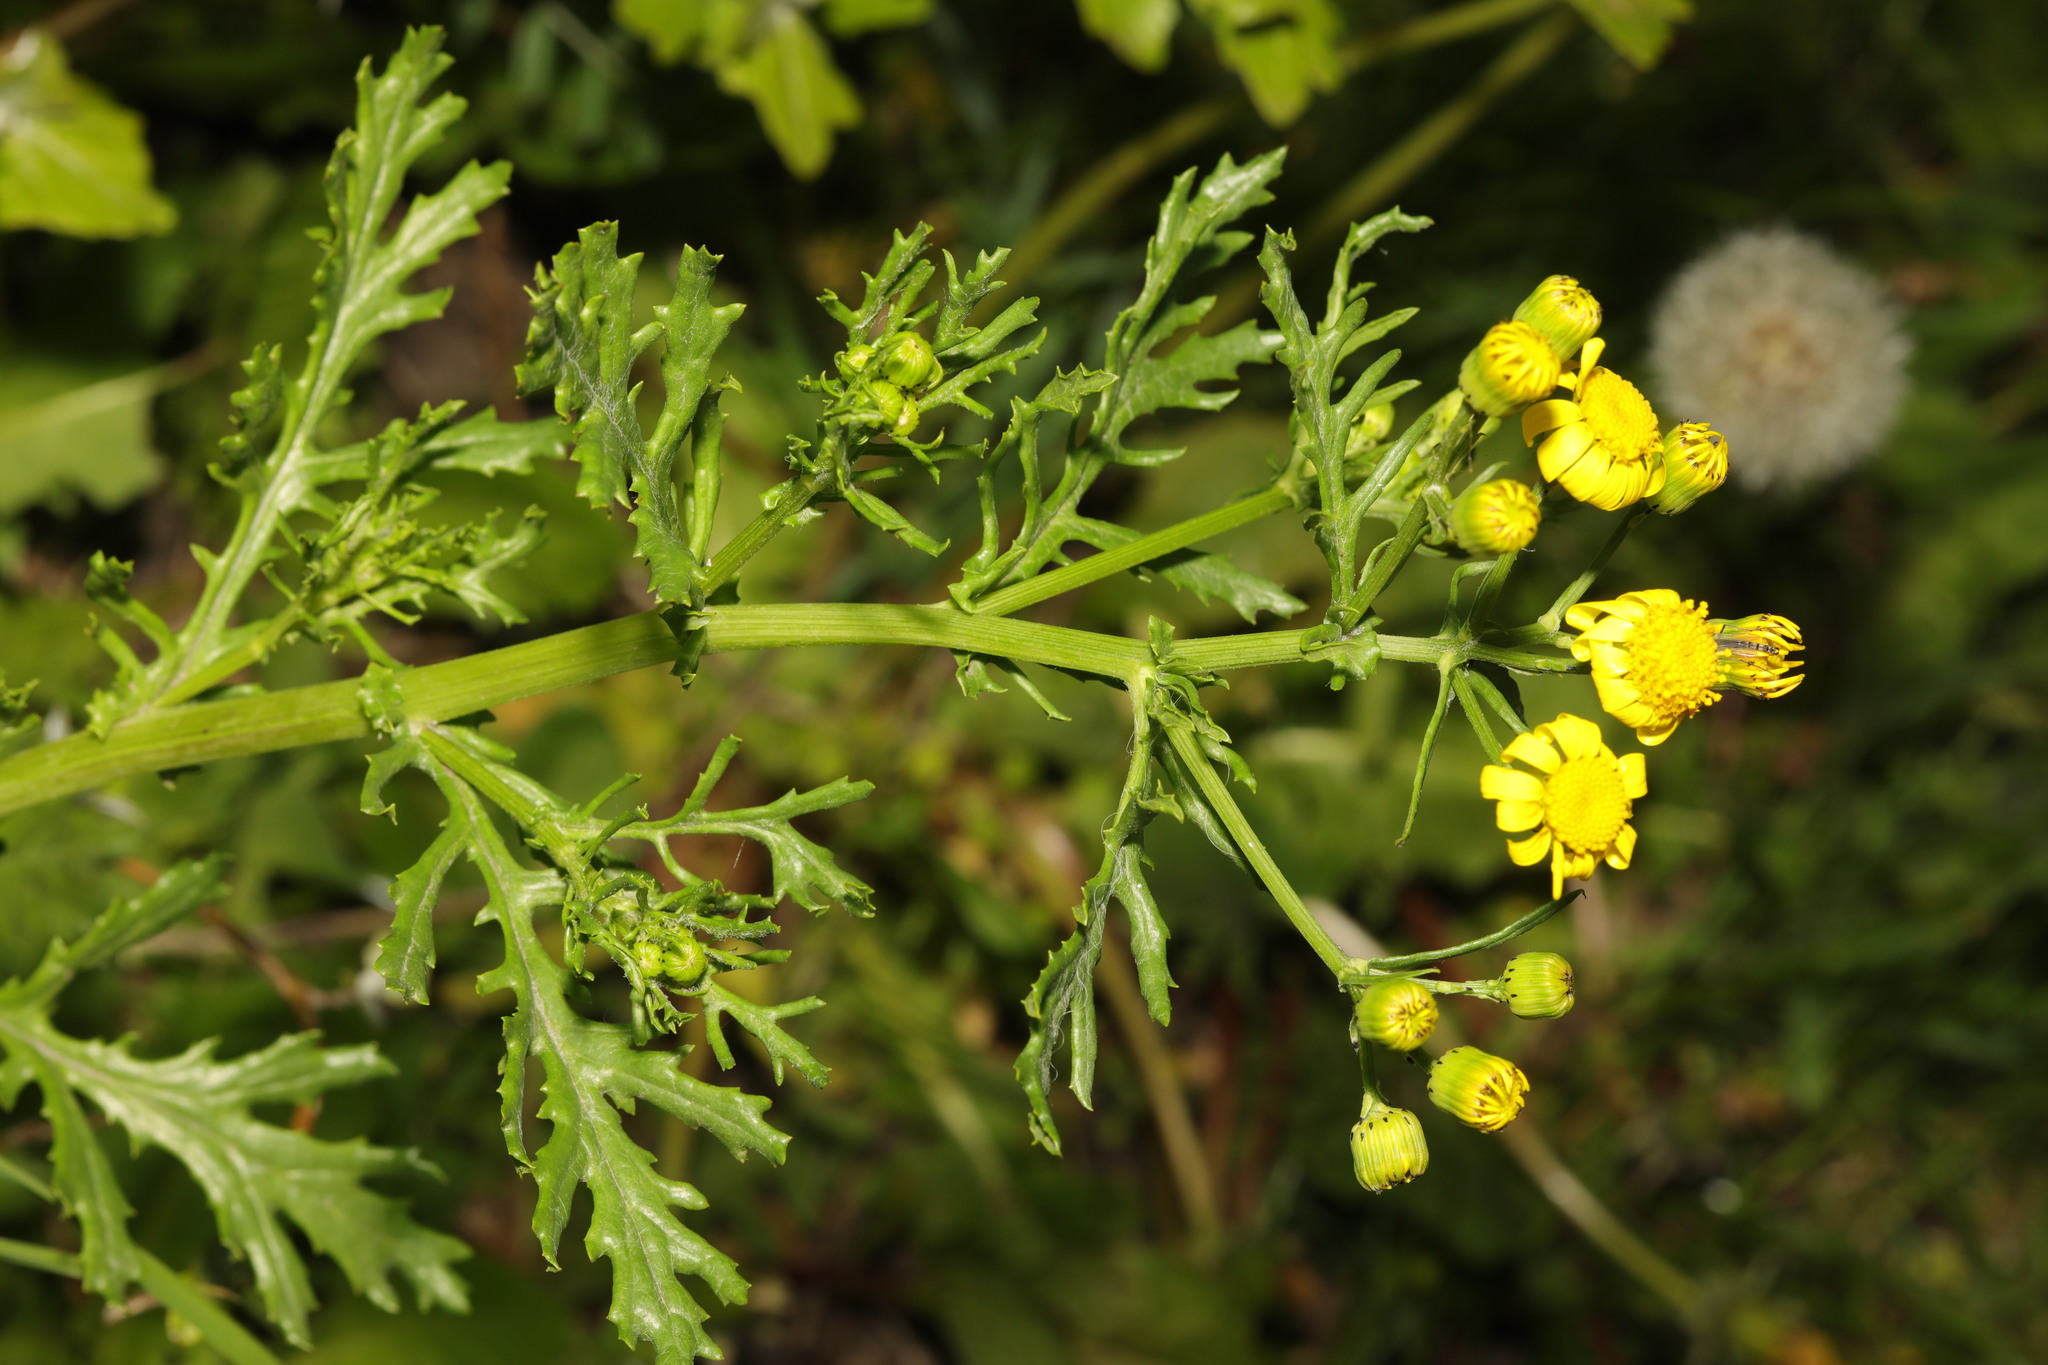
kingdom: Plantae
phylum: Tracheophyta
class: Magnoliopsida
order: Asterales
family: Asteraceae
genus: Senecio
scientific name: Senecio squalidus
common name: Oxford ragwort
